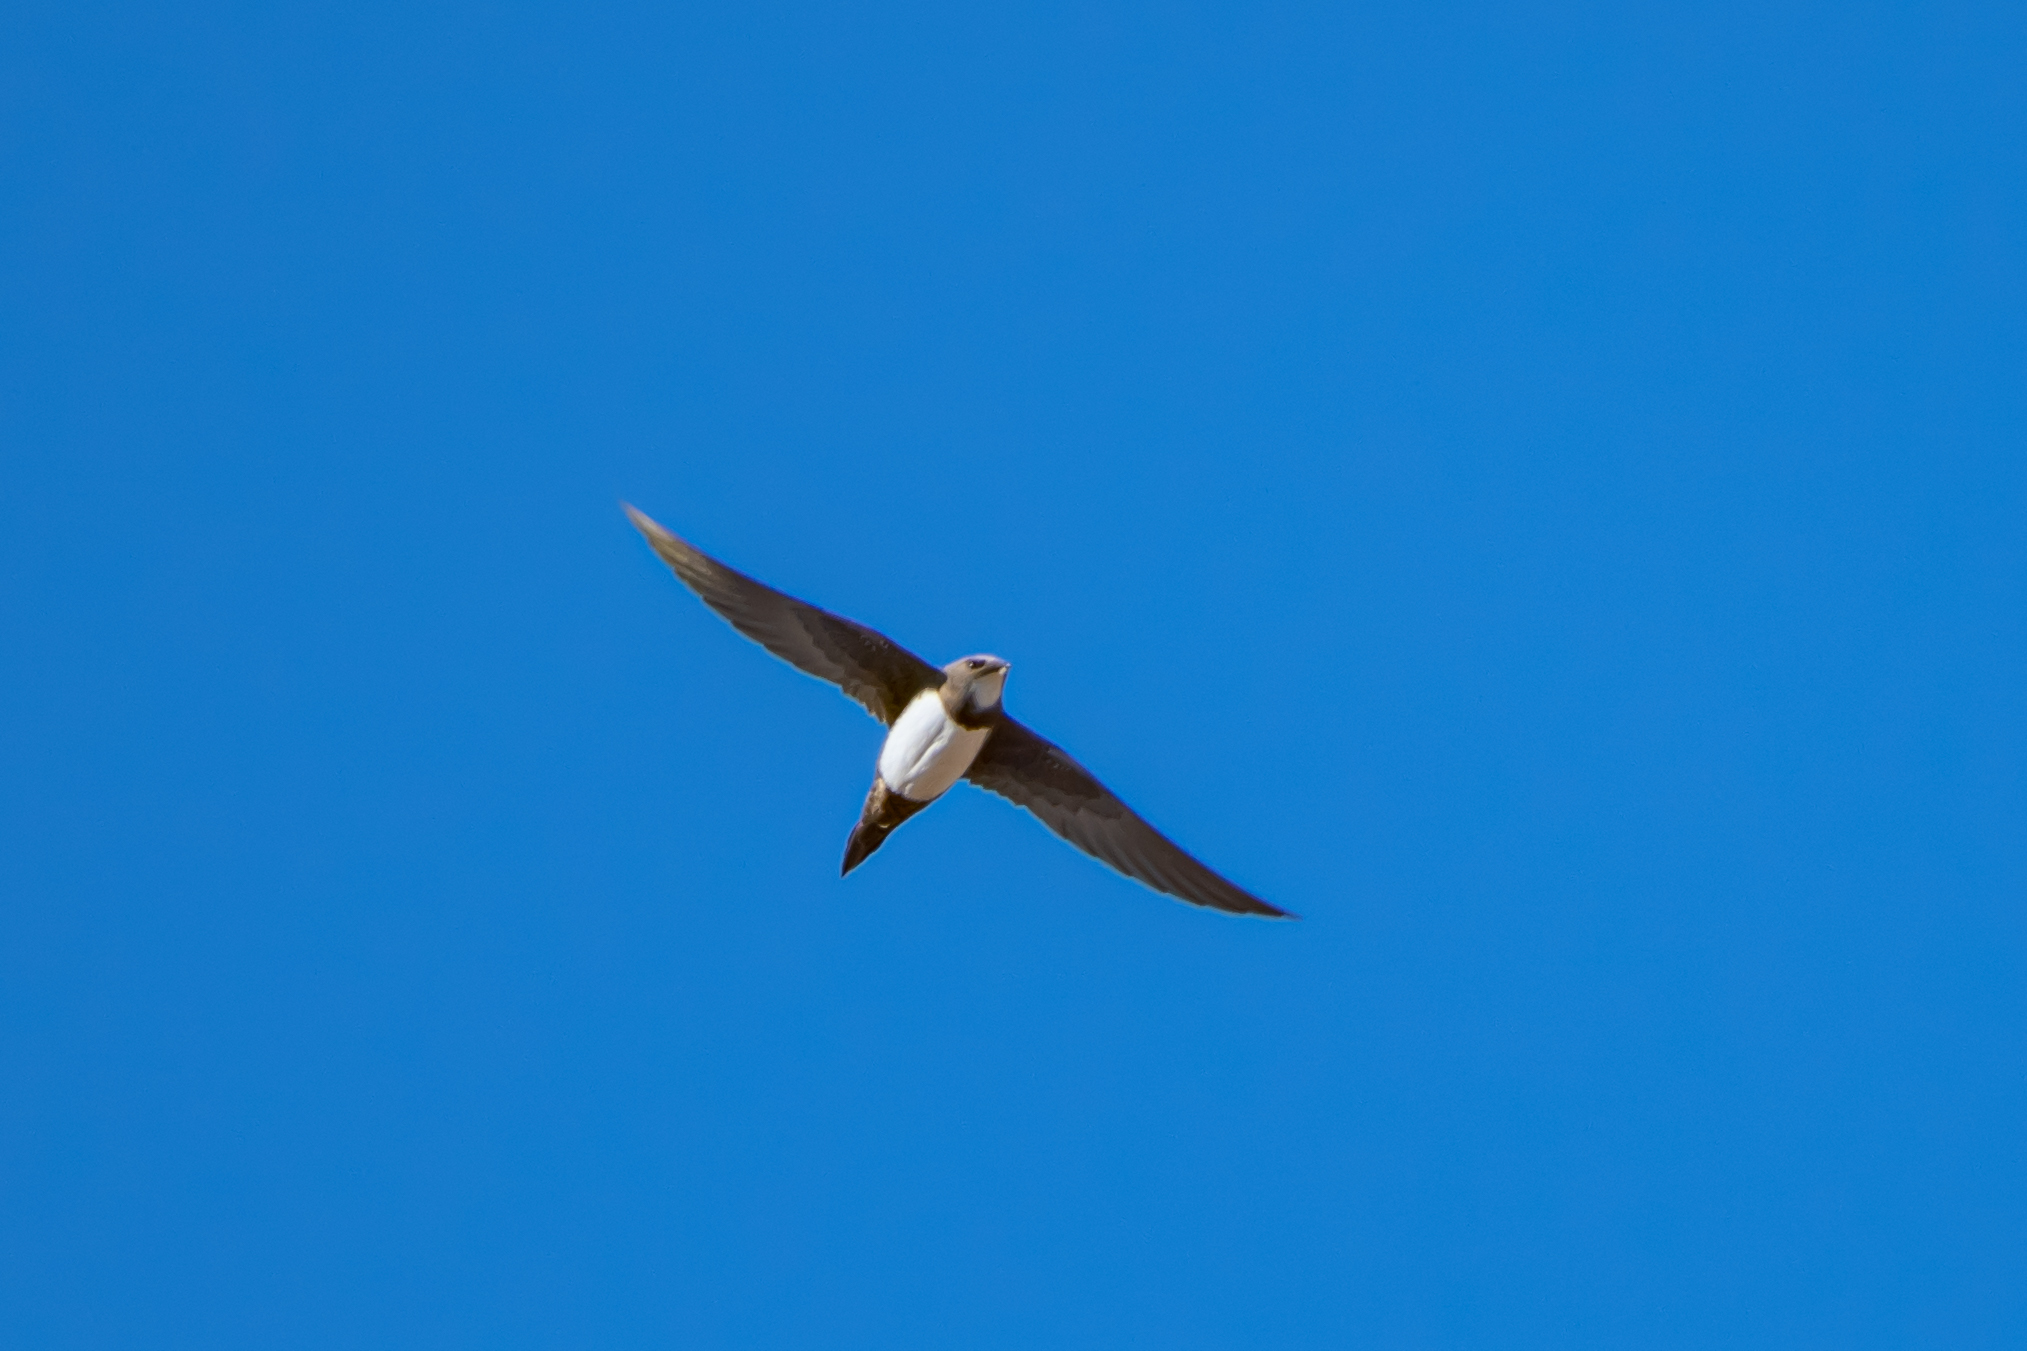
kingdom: Animalia
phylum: Chordata
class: Aves
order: Apodiformes
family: Apodidae
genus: Tachymarptis
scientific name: Tachymarptis melba
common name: Alpine swift
